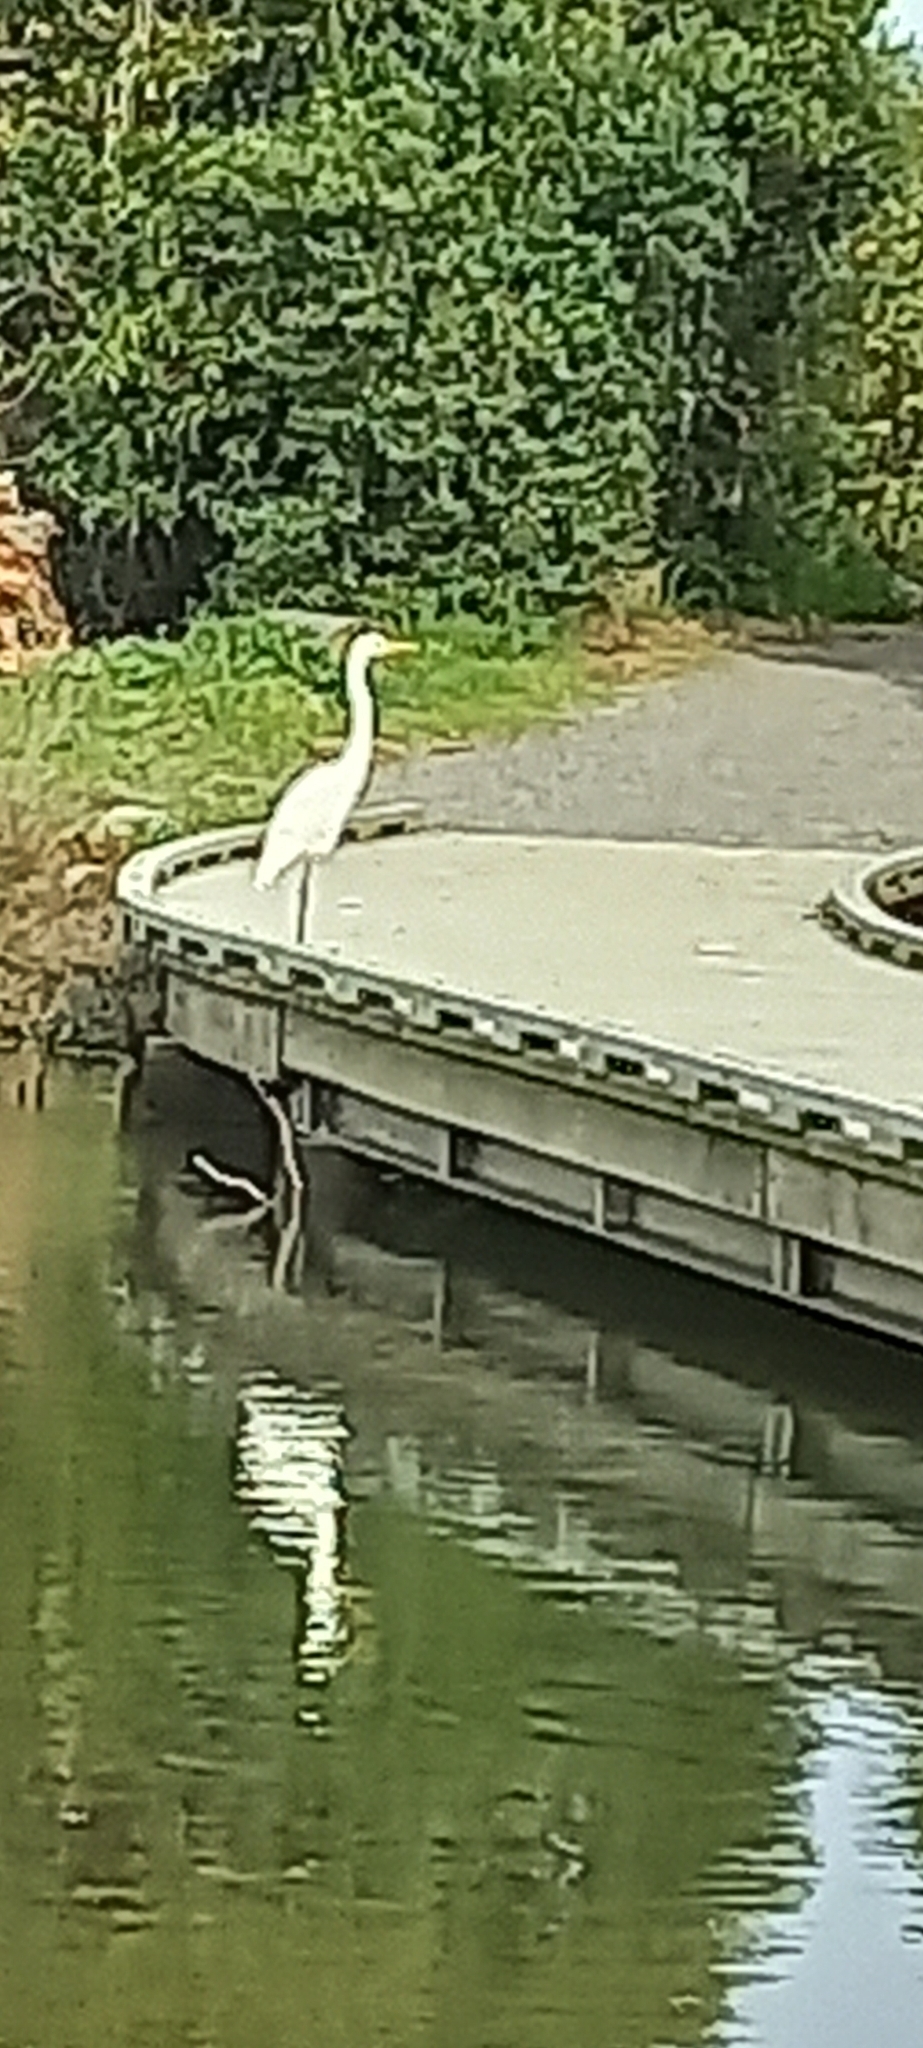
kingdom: Animalia
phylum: Chordata
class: Aves
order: Pelecaniformes
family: Ardeidae
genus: Ardea
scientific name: Ardea modesta
